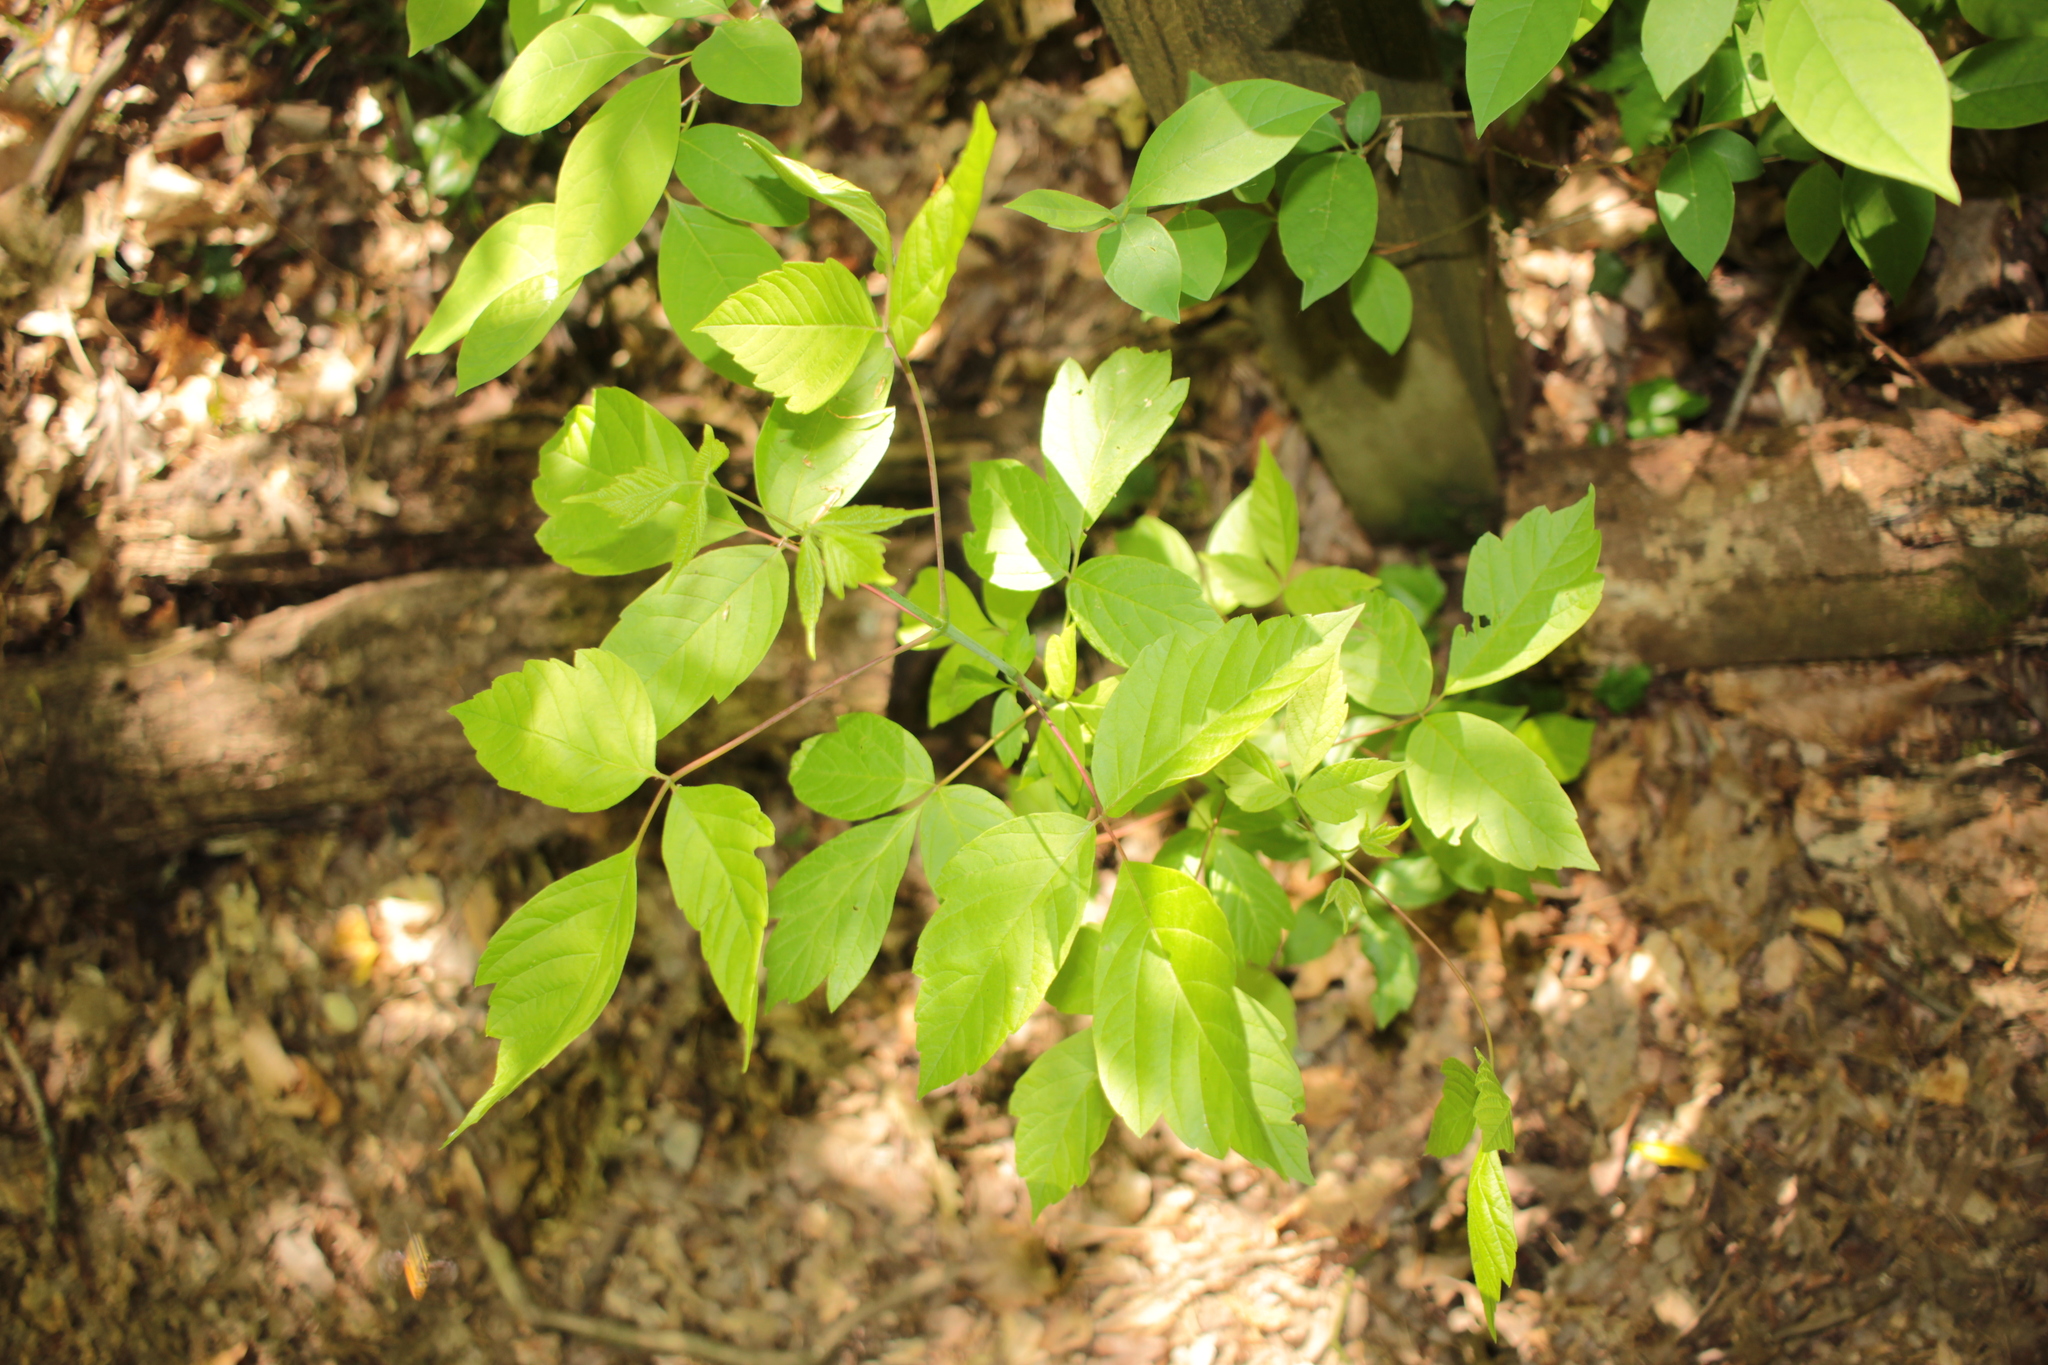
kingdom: Plantae
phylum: Tracheophyta
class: Magnoliopsida
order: Sapindales
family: Sapindaceae
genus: Acer
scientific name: Acer negundo
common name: Ashleaf maple
